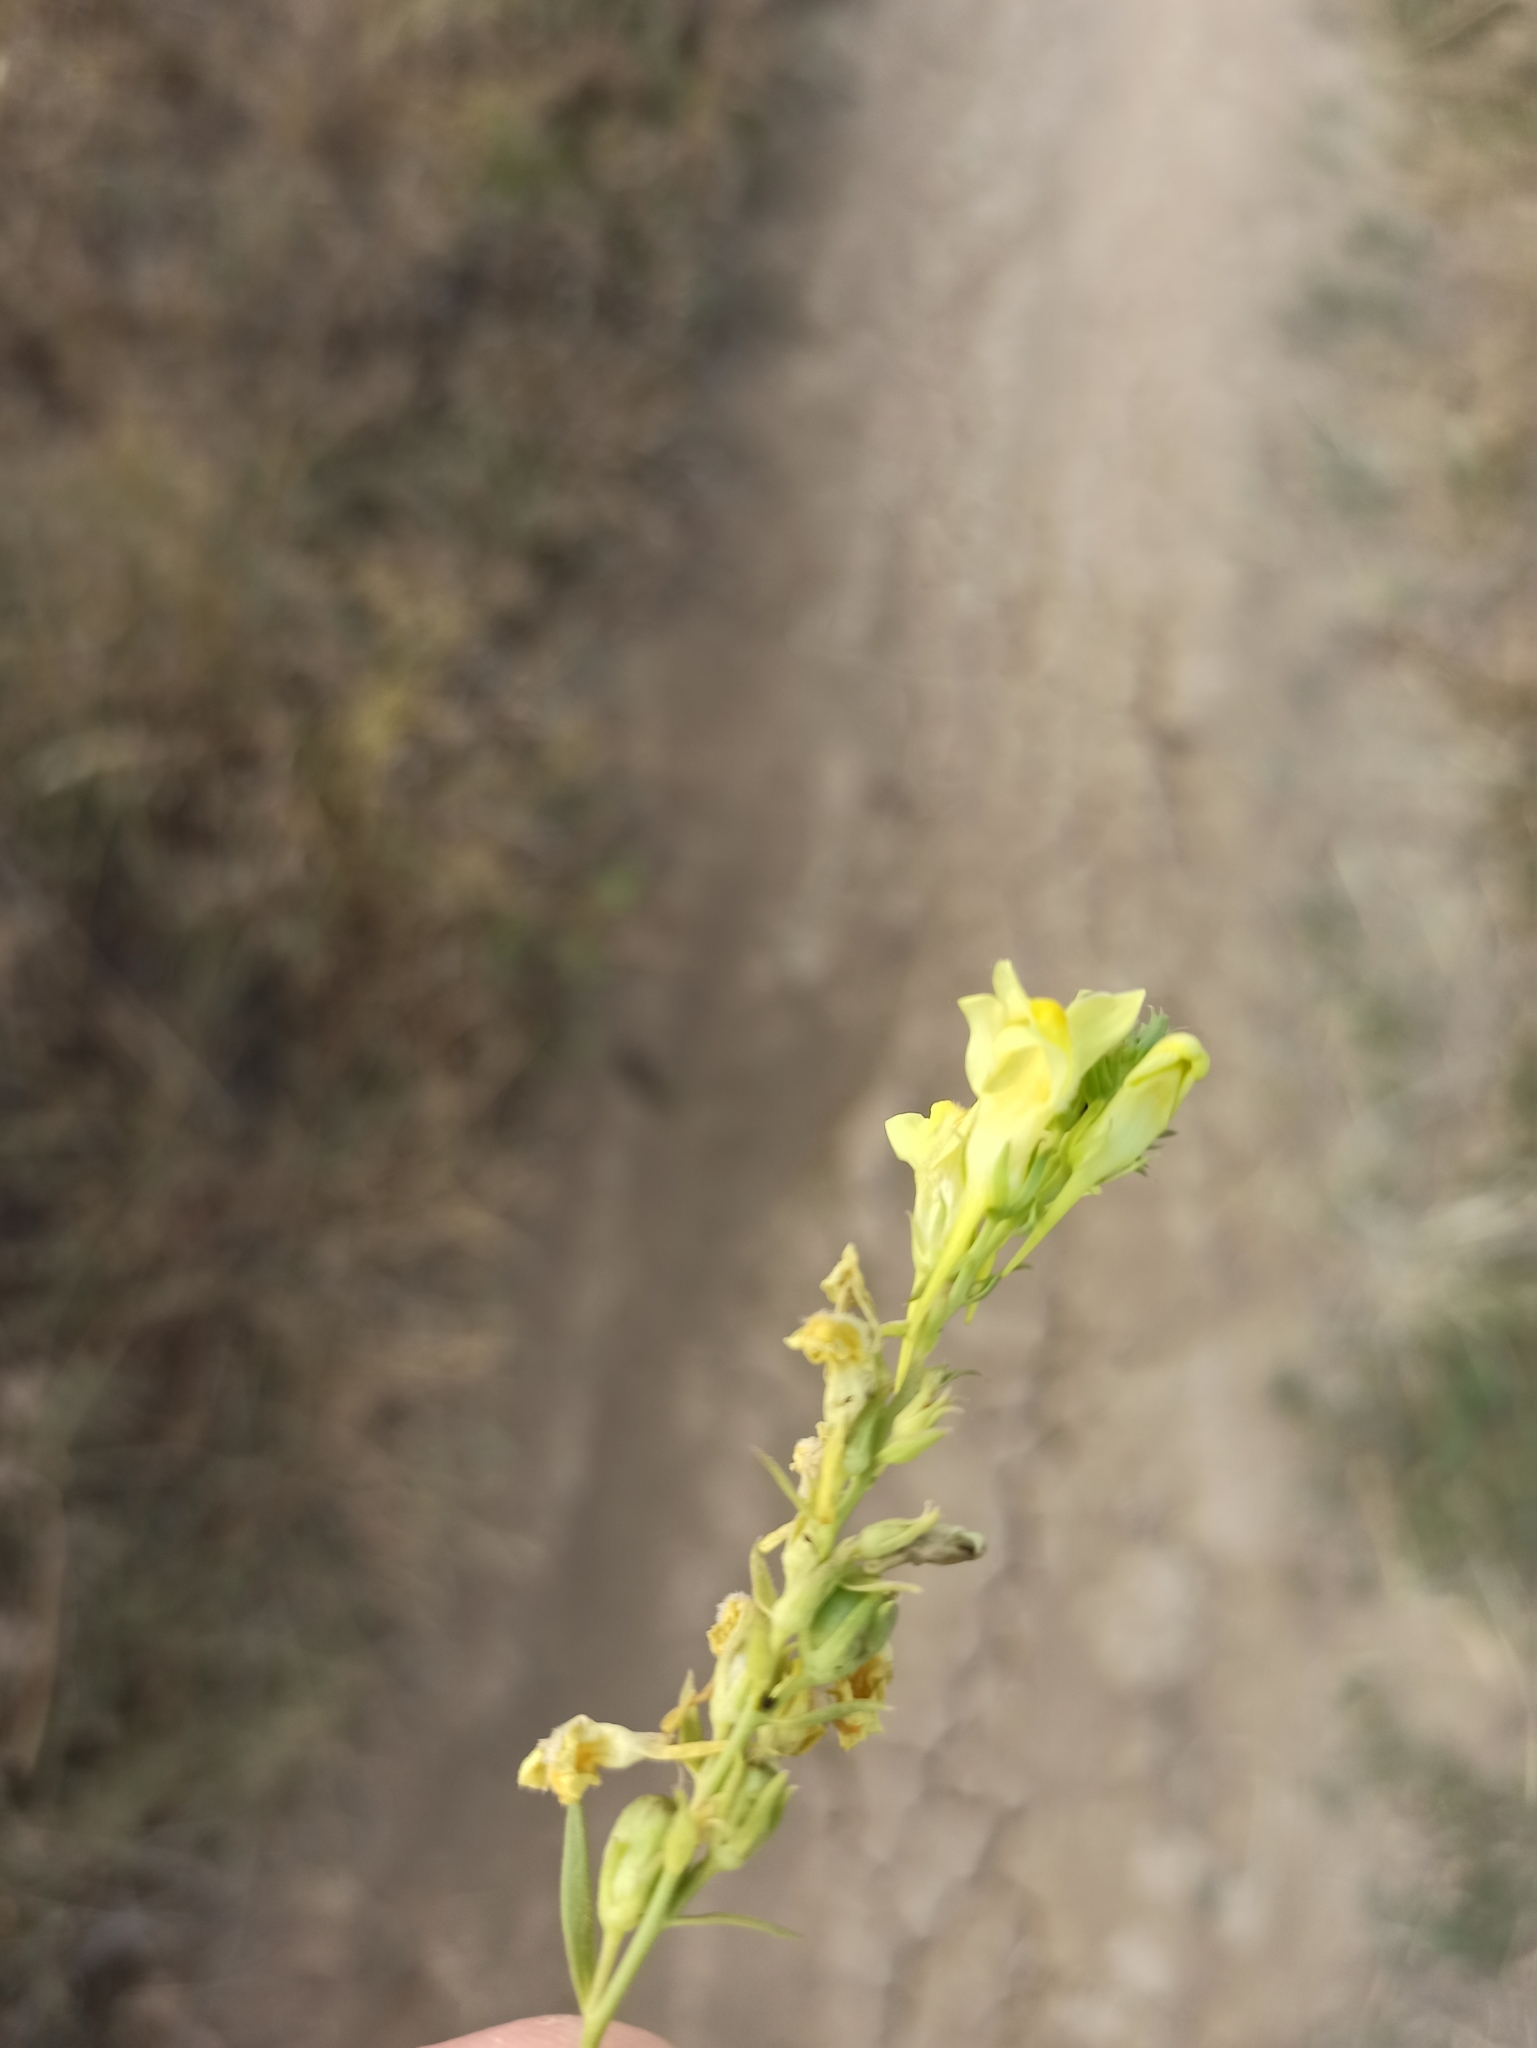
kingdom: Plantae
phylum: Tracheophyta
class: Magnoliopsida
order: Lamiales
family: Plantaginaceae
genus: Linaria
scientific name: Linaria vulgaris
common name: Butter and eggs
